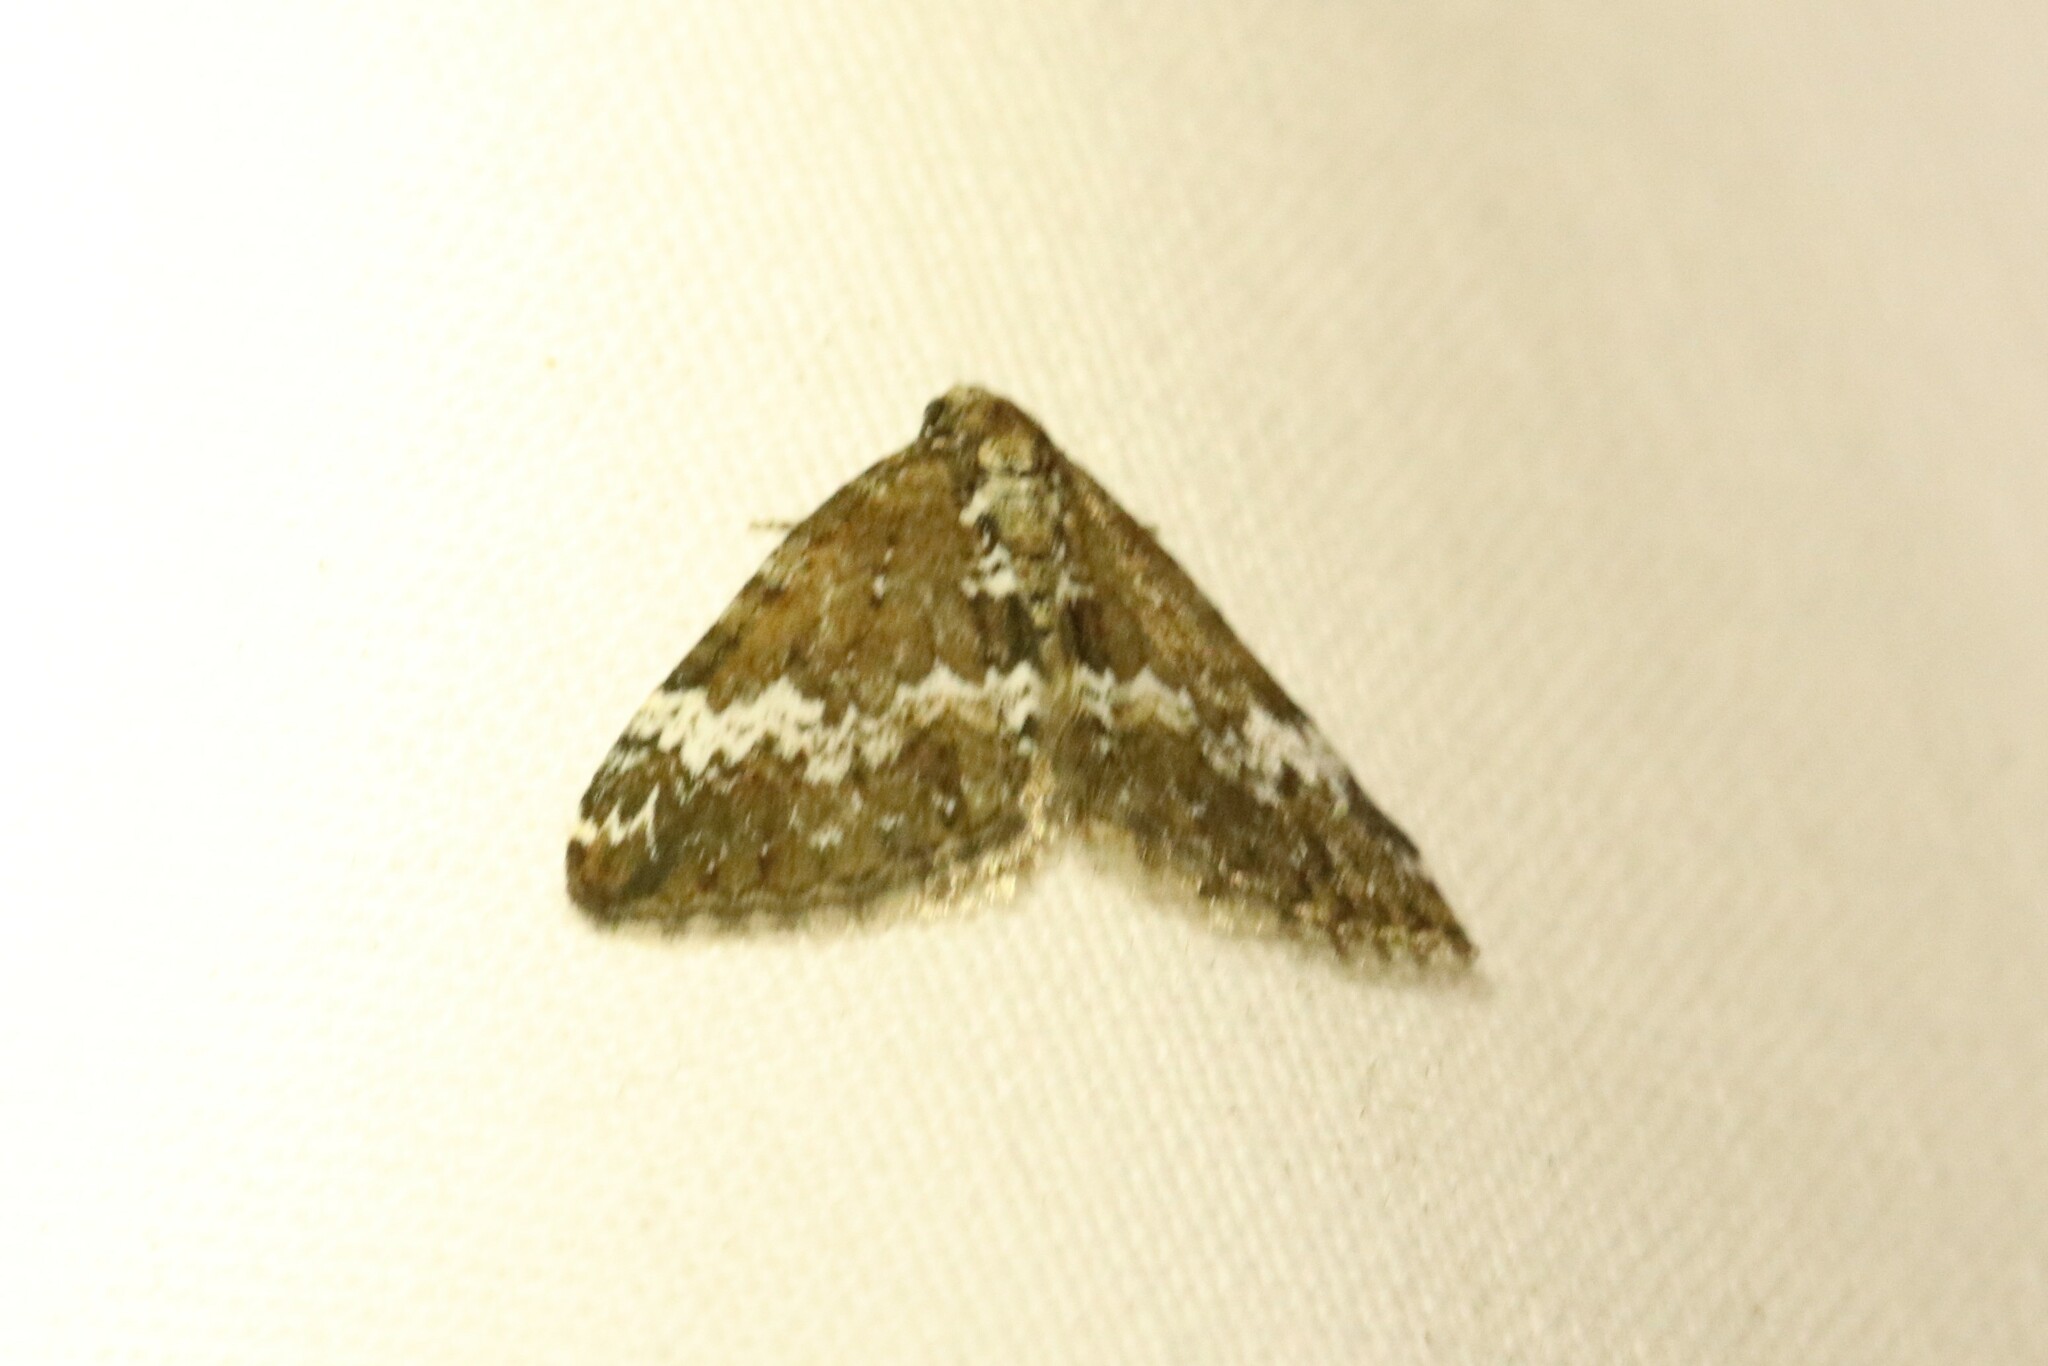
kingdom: Animalia
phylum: Arthropoda
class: Insecta
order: Lepidoptera
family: Geometridae
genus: Perizoma
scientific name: Perizoma alchemillata
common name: Small rivulet
